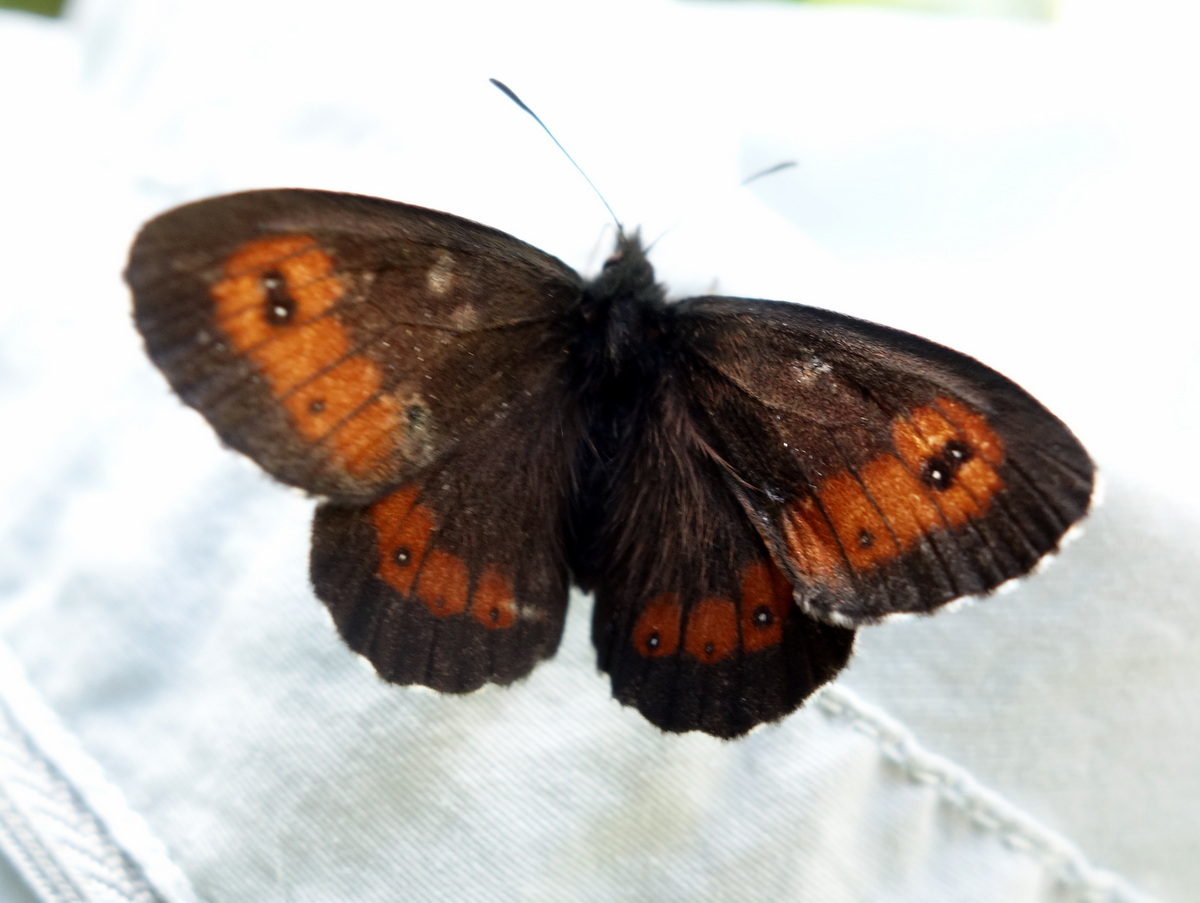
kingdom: Animalia
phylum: Arthropoda
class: Insecta
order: Lepidoptera
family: Nymphalidae
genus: Erebia
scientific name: Erebia euryale
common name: Large ringlet
